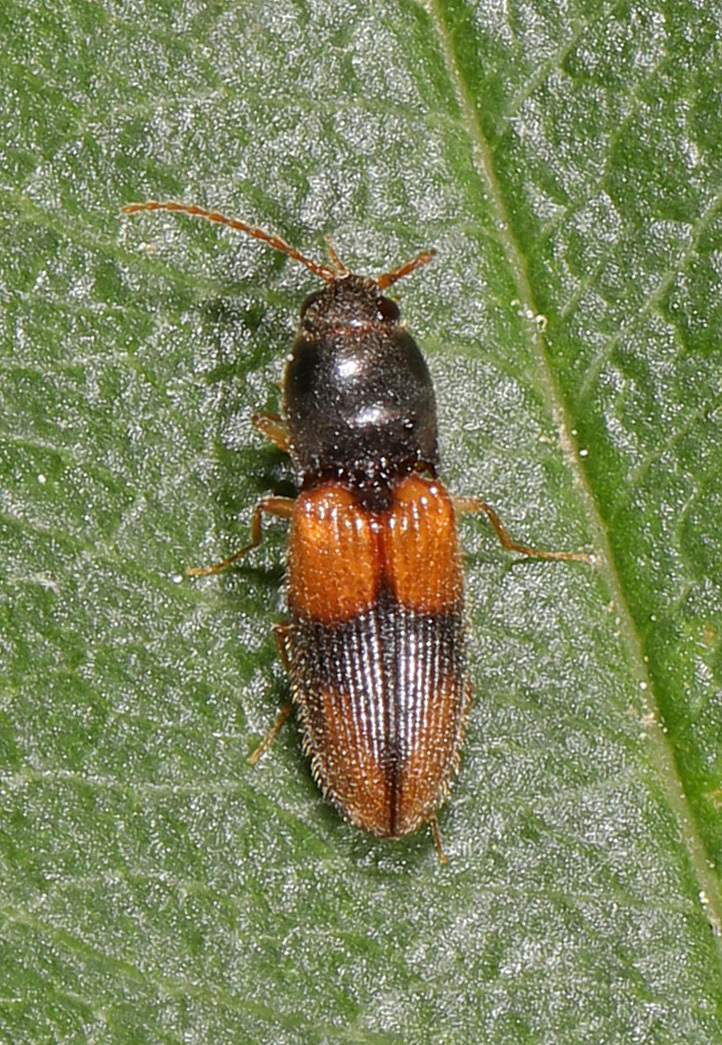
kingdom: Animalia
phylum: Arthropoda
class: Insecta
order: Coleoptera
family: Elateridae
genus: Horistonotus
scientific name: Horistonotus curiatus
